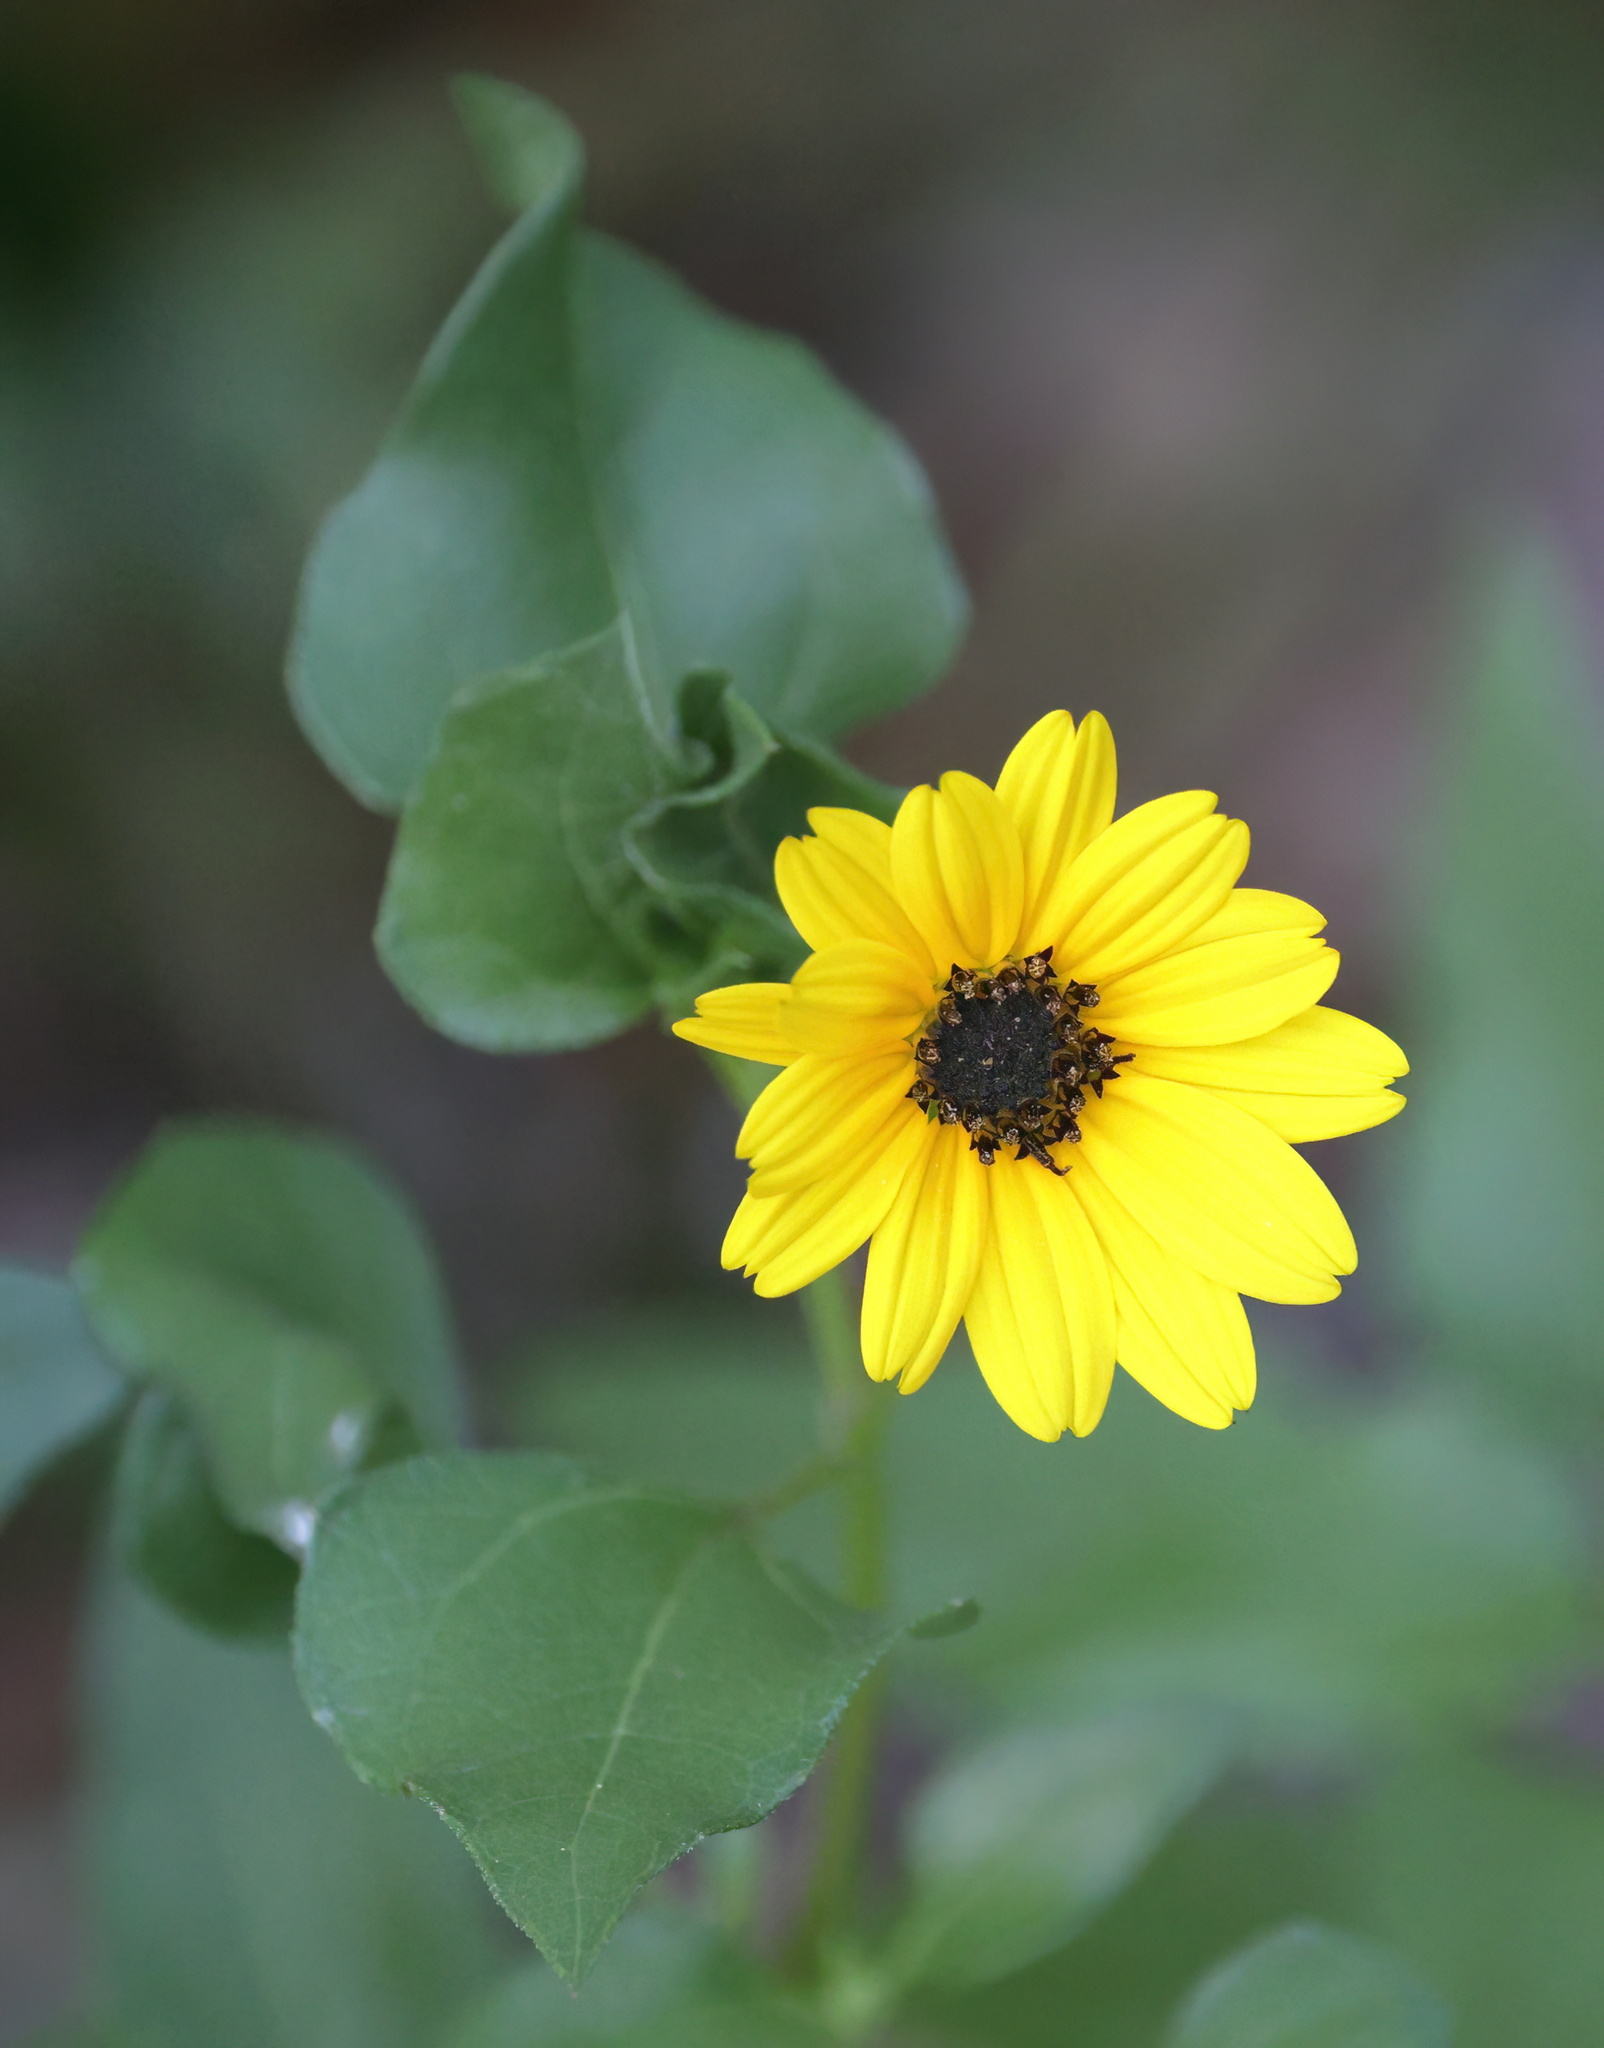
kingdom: Plantae
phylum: Tracheophyta
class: Magnoliopsida
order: Asterales
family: Asteraceae
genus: Helianthus
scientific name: Helianthus debilis
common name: Weak sunflower
